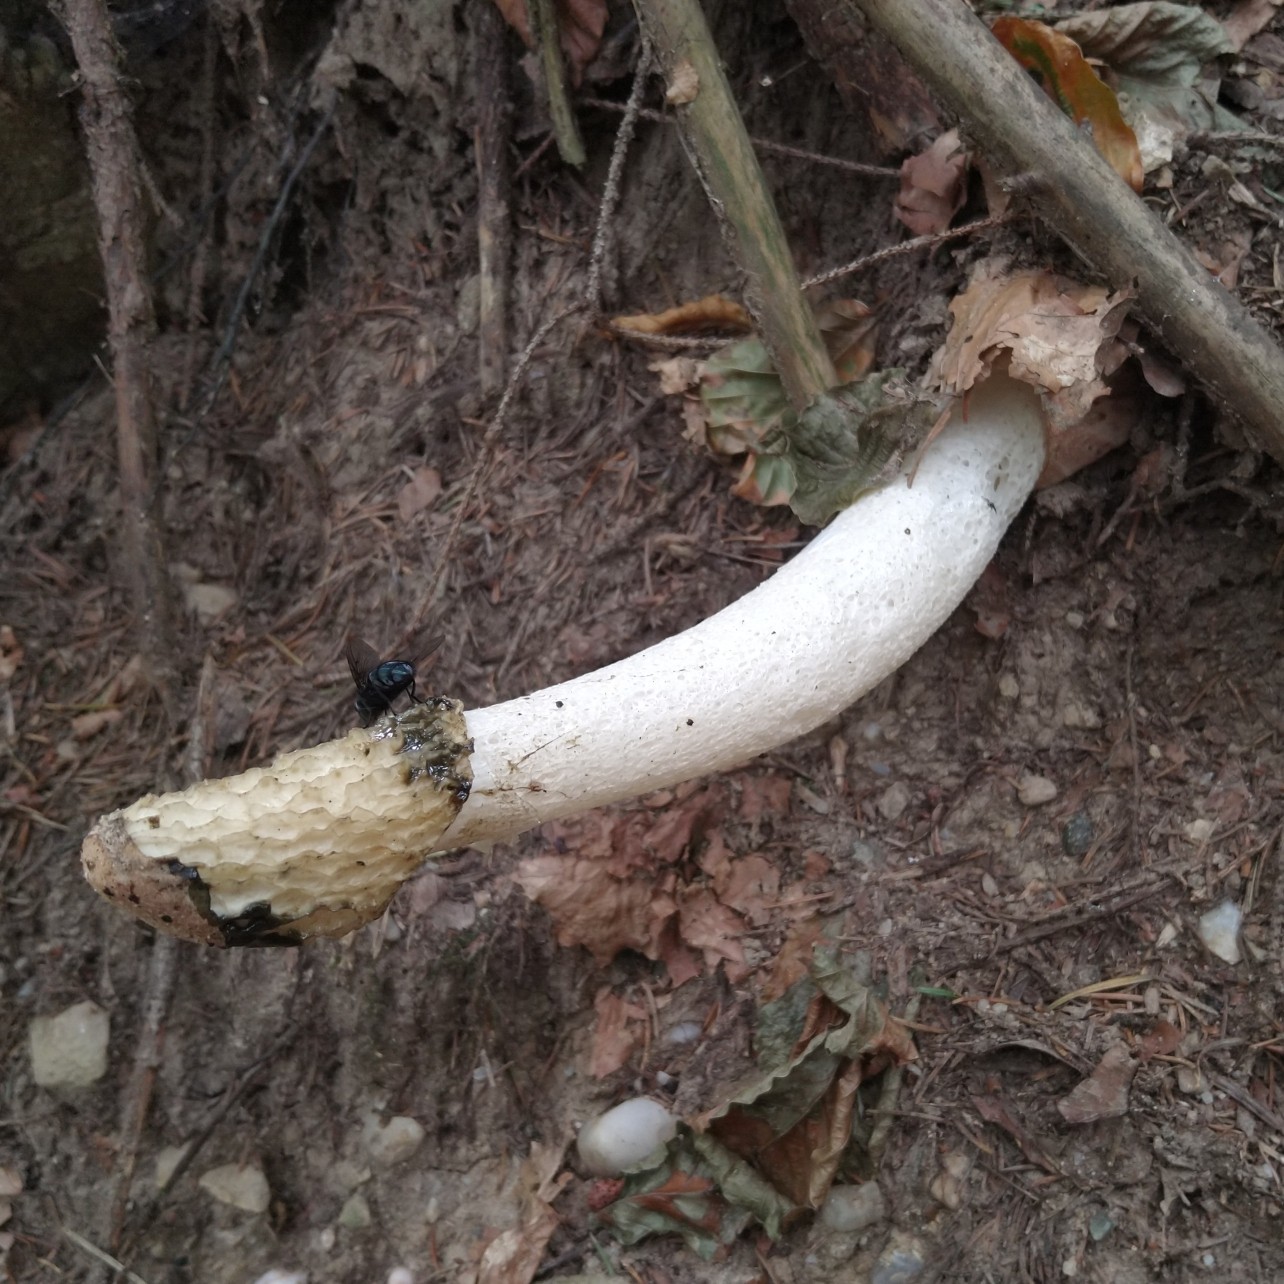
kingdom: Fungi
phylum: Basidiomycota
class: Agaricomycetes
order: Phallales
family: Phallaceae
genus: Phallus
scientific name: Phallus impudicus
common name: Common stinkhorn
